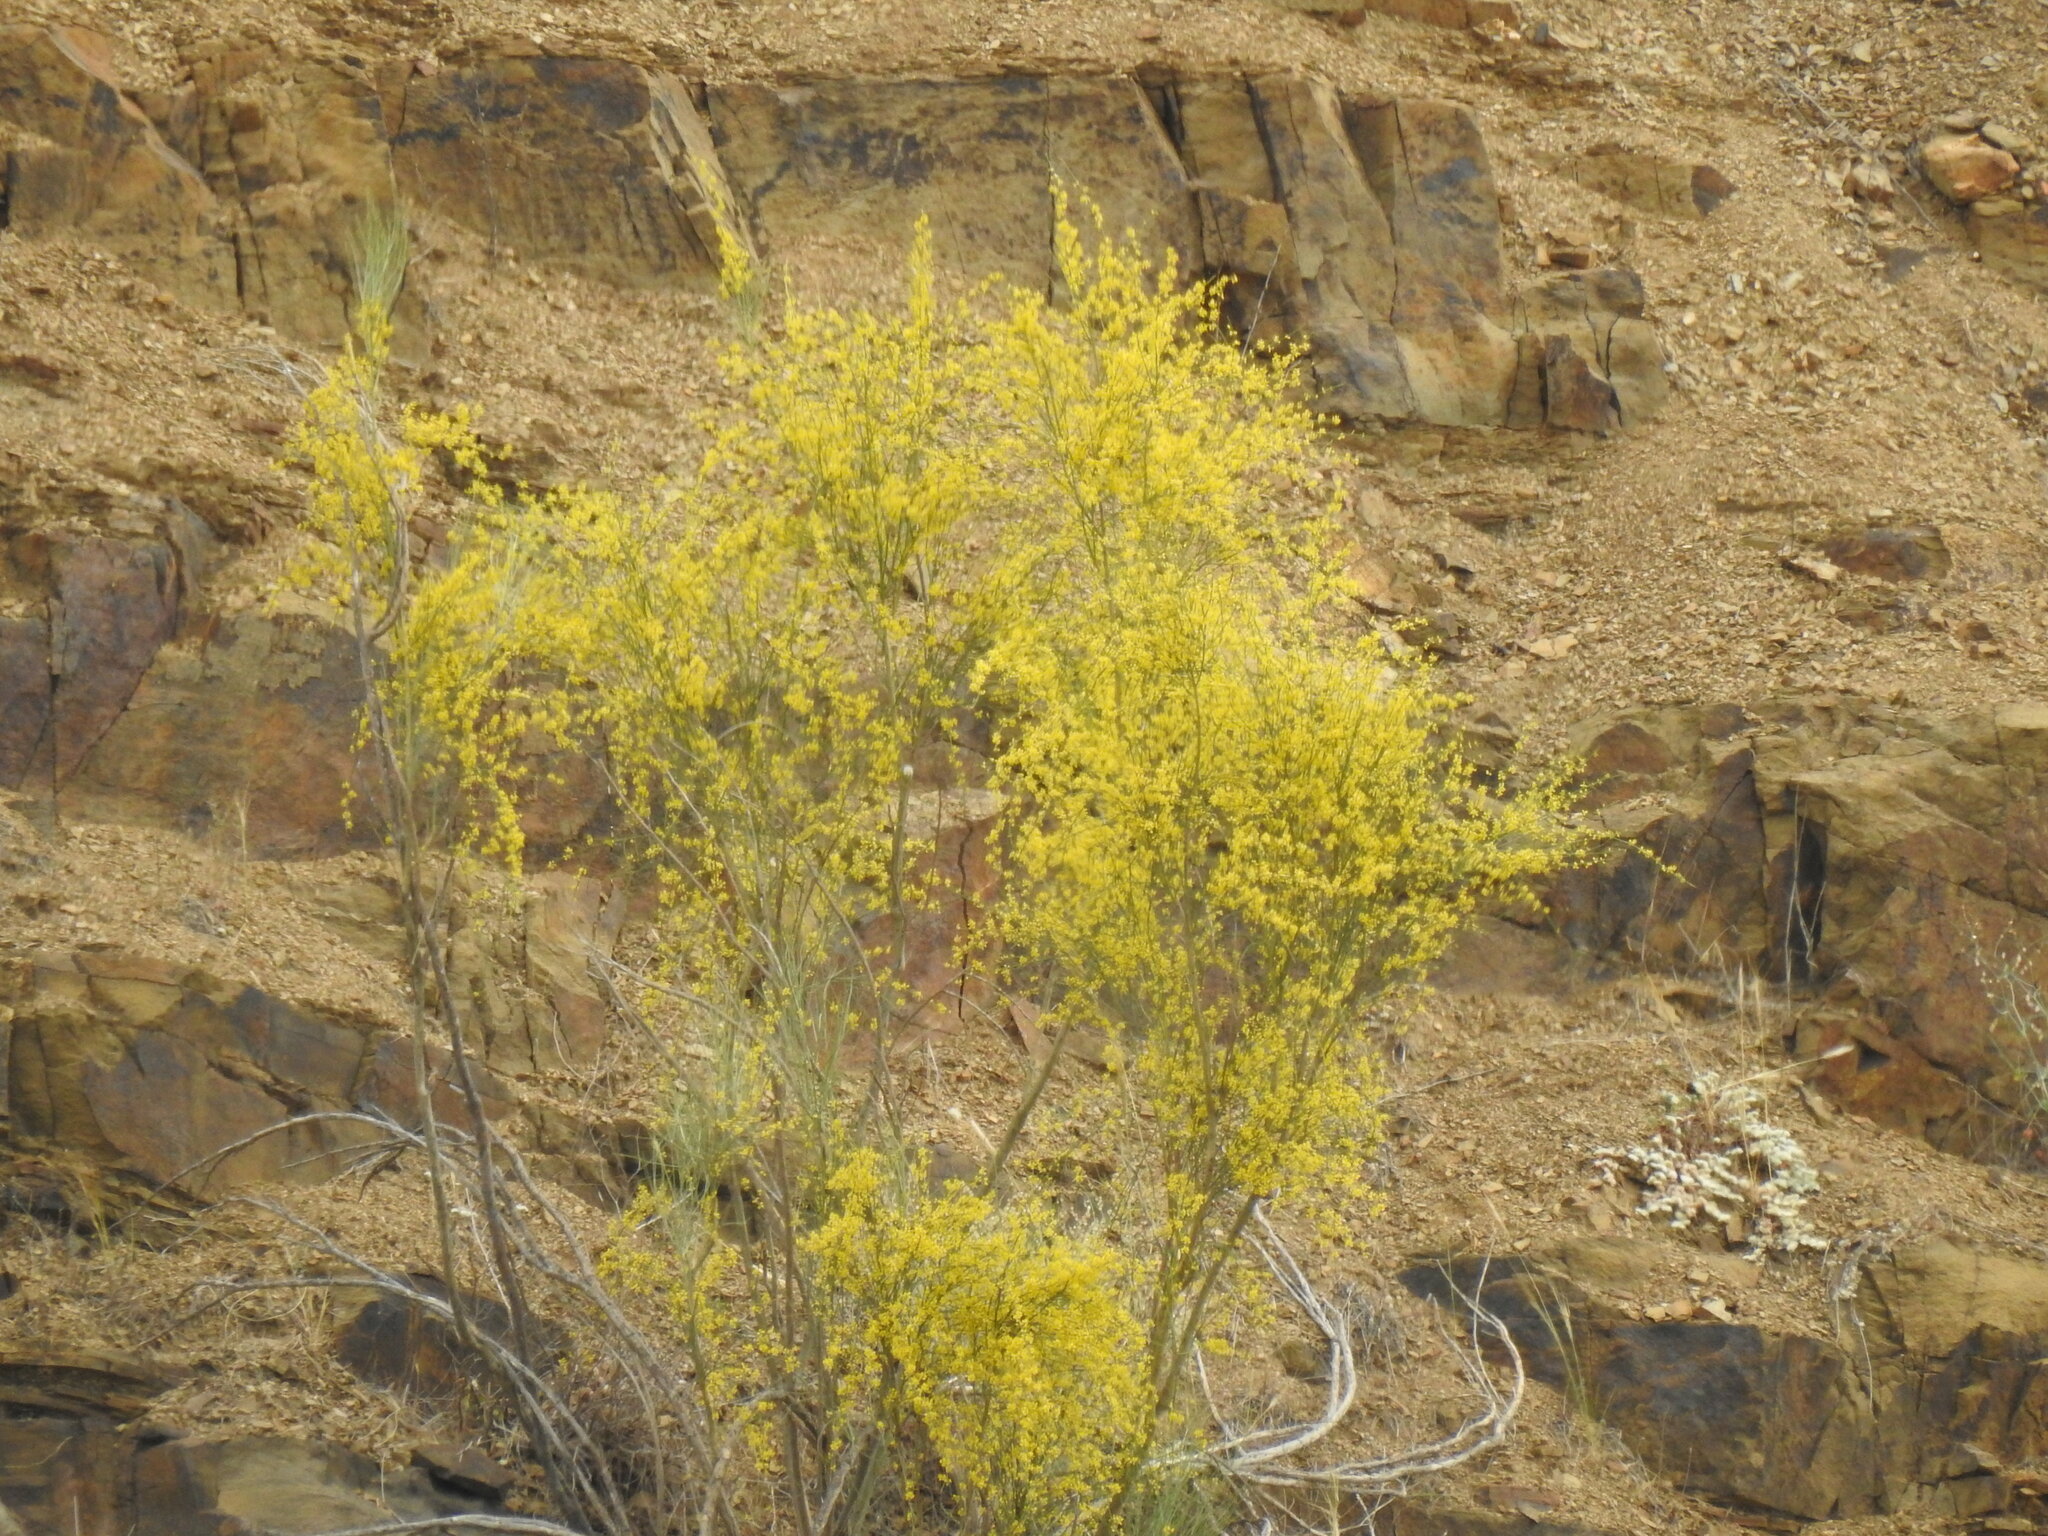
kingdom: Plantae
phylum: Tracheophyta
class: Magnoliopsida
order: Fabales
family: Fabaceae
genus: Retama
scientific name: Retama sphaerocarpa
